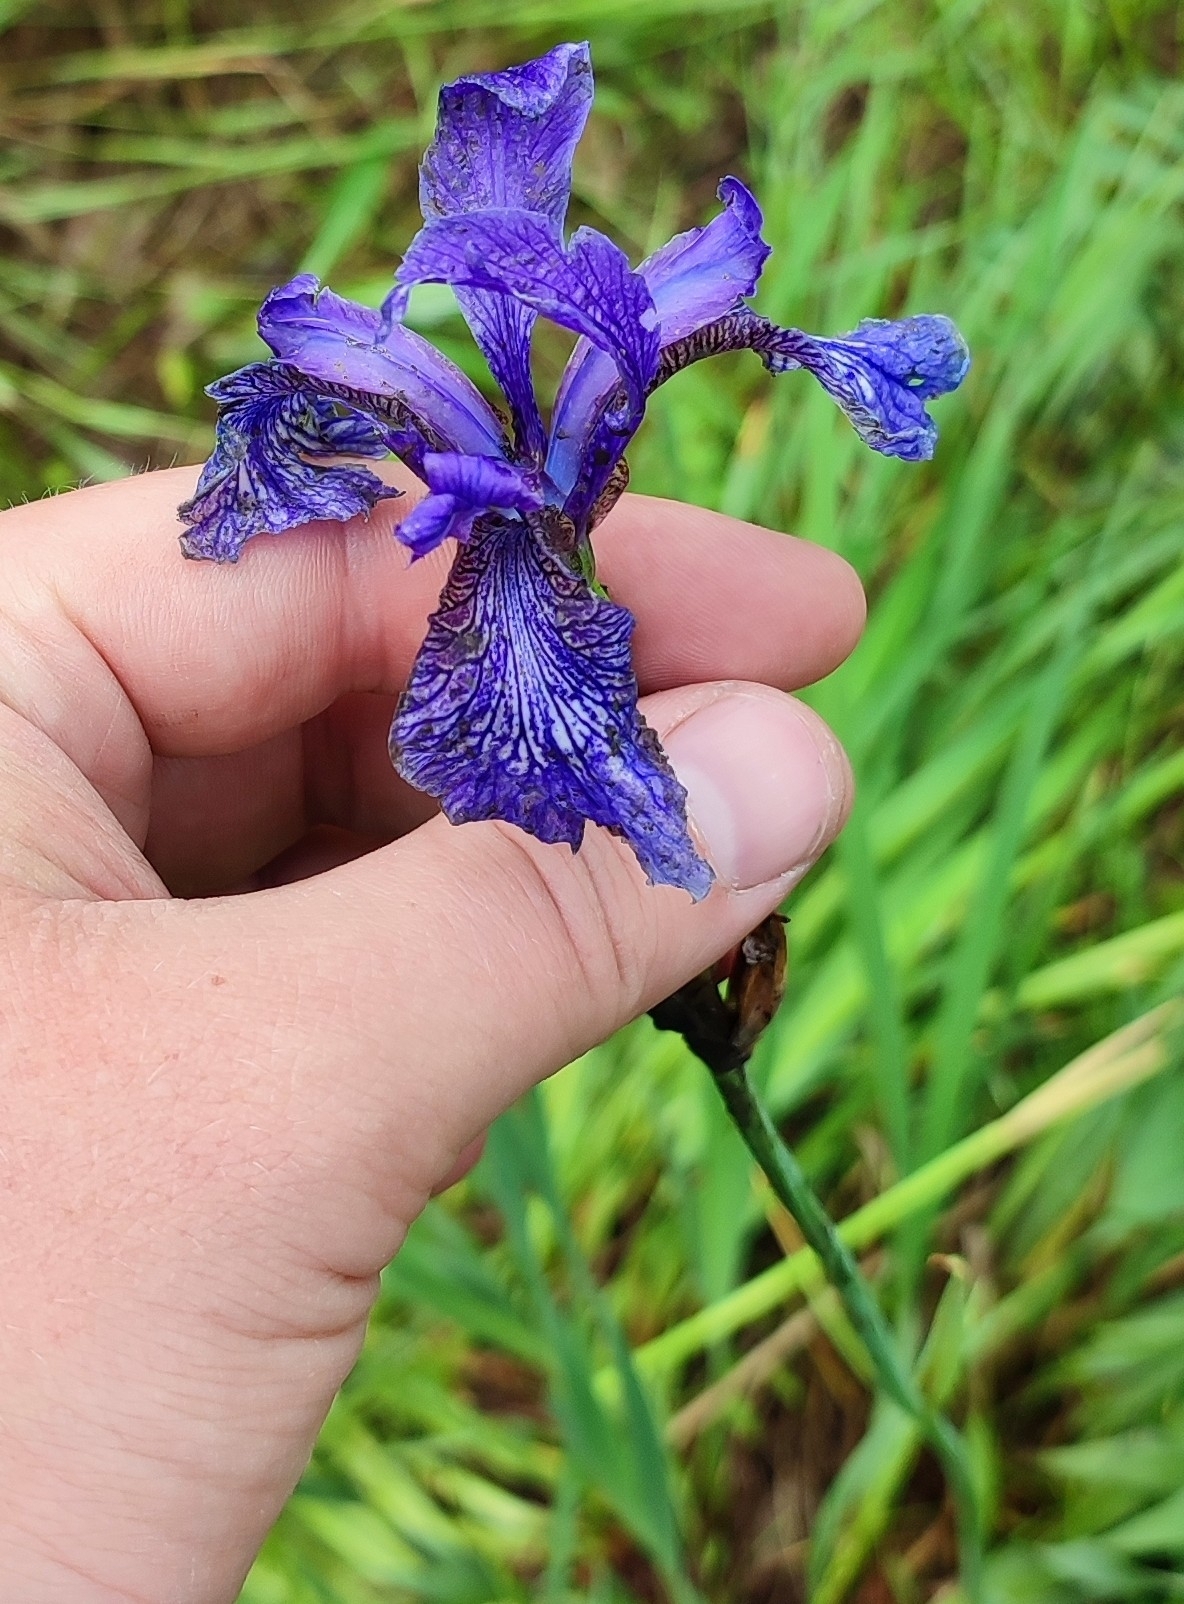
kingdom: Plantae
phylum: Tracheophyta
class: Liliopsida
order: Asparagales
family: Iridaceae
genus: Iris
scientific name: Iris sibirica
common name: Siberian iris
